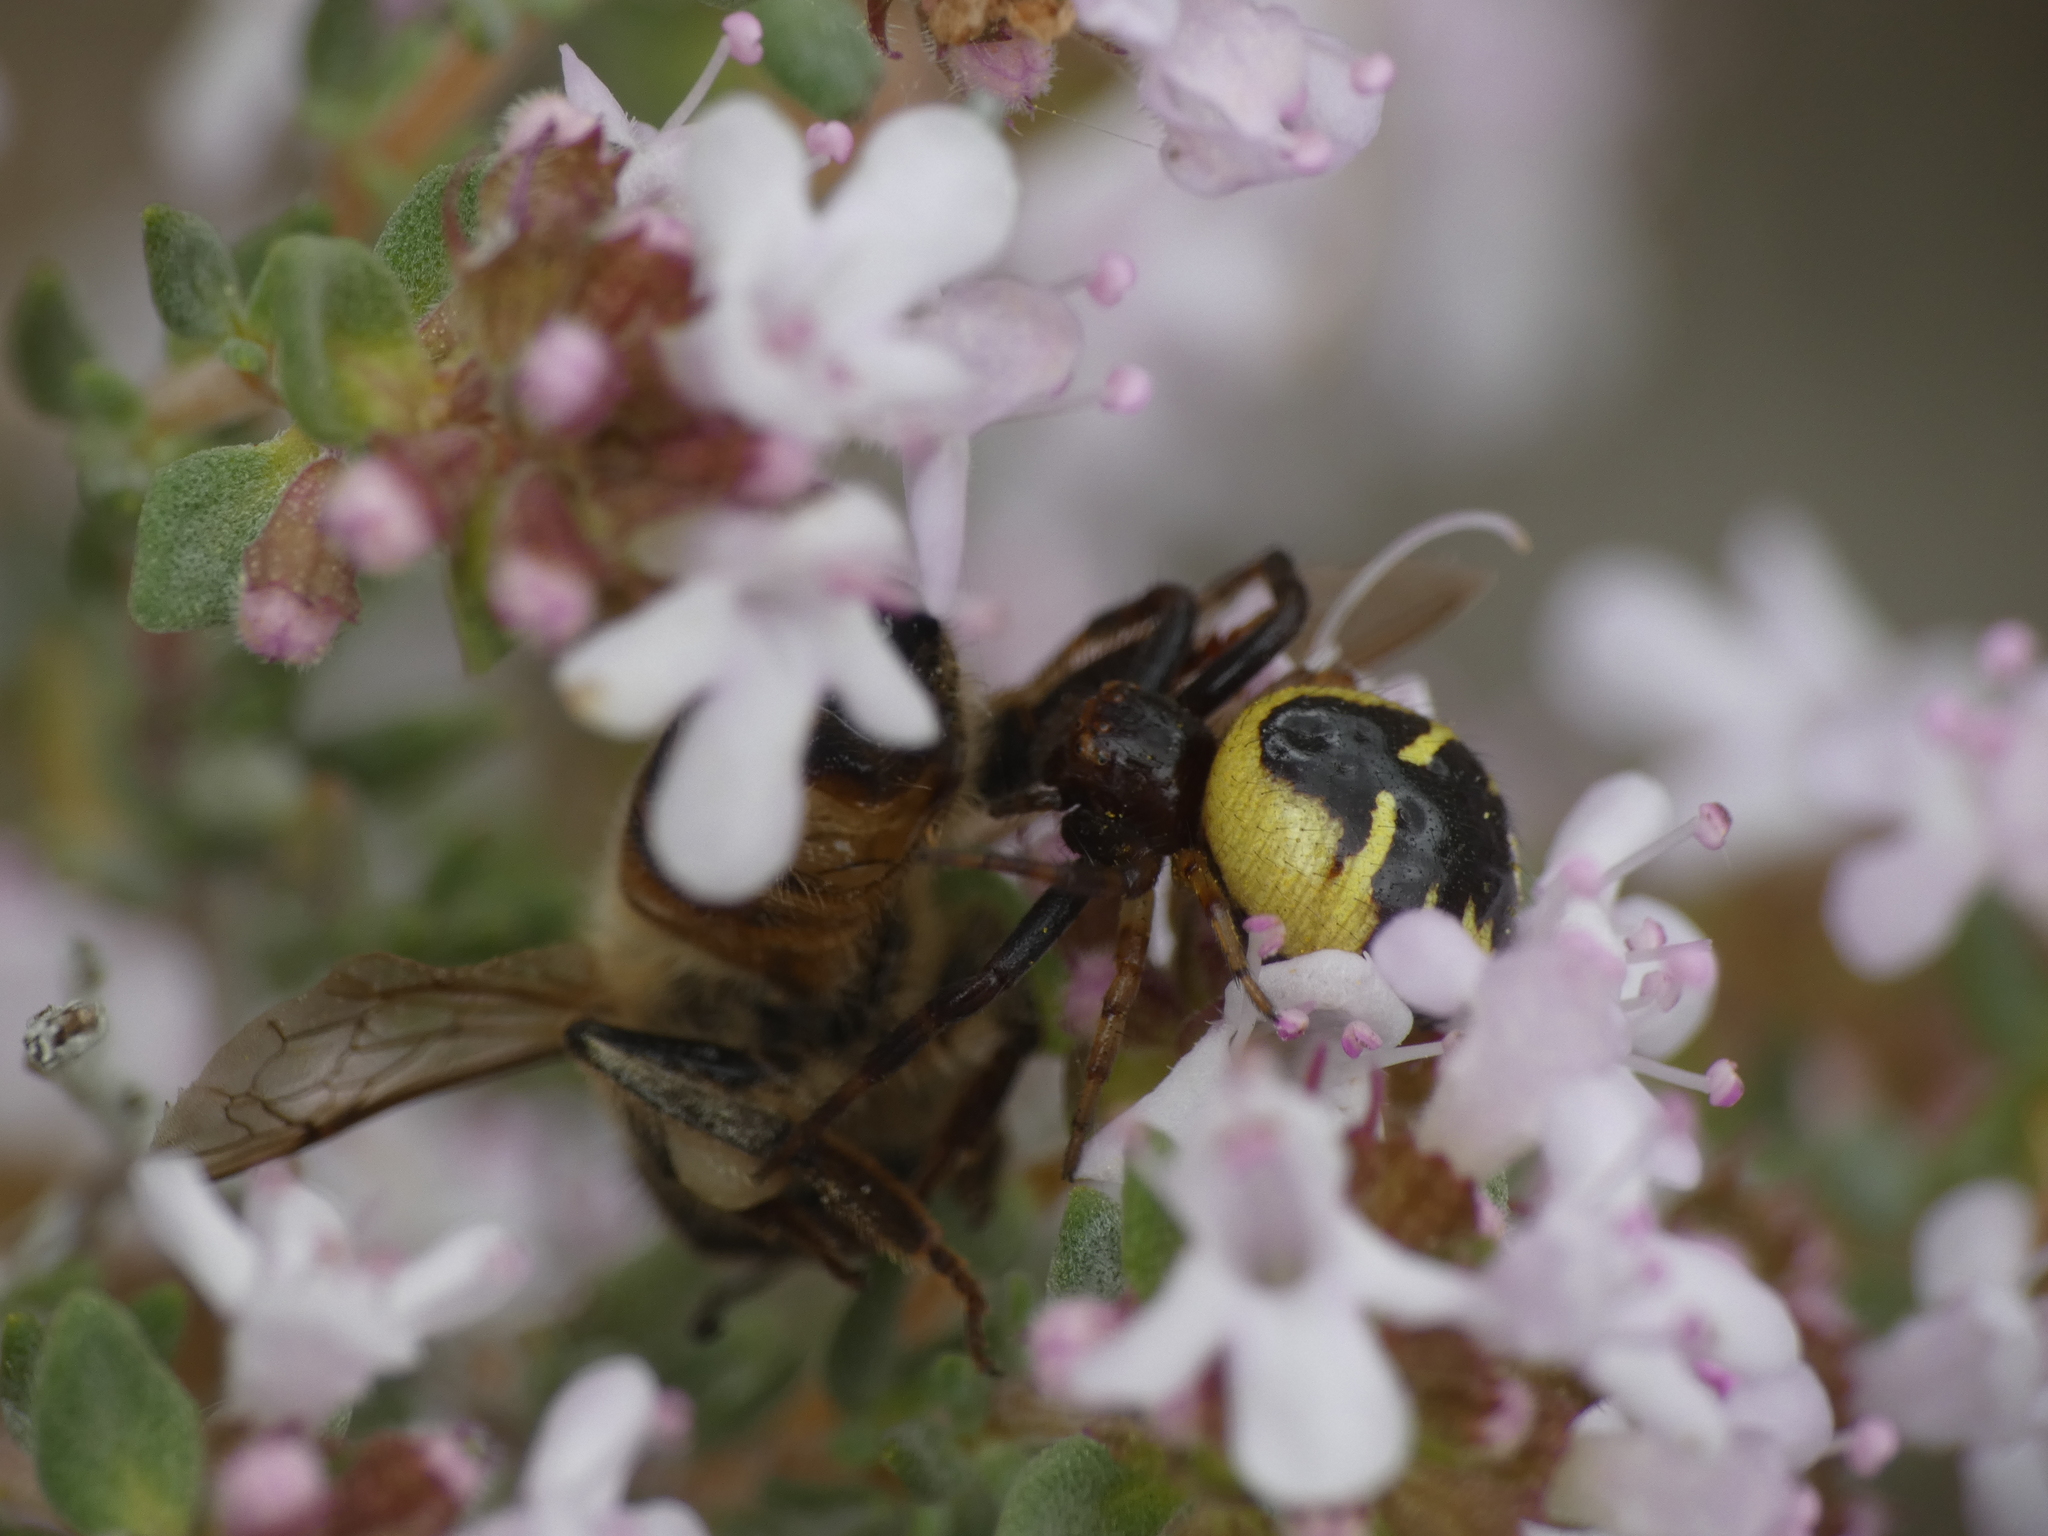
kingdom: Animalia
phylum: Arthropoda
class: Arachnida
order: Araneae
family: Thomisidae
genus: Synema
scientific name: Synema globosum
